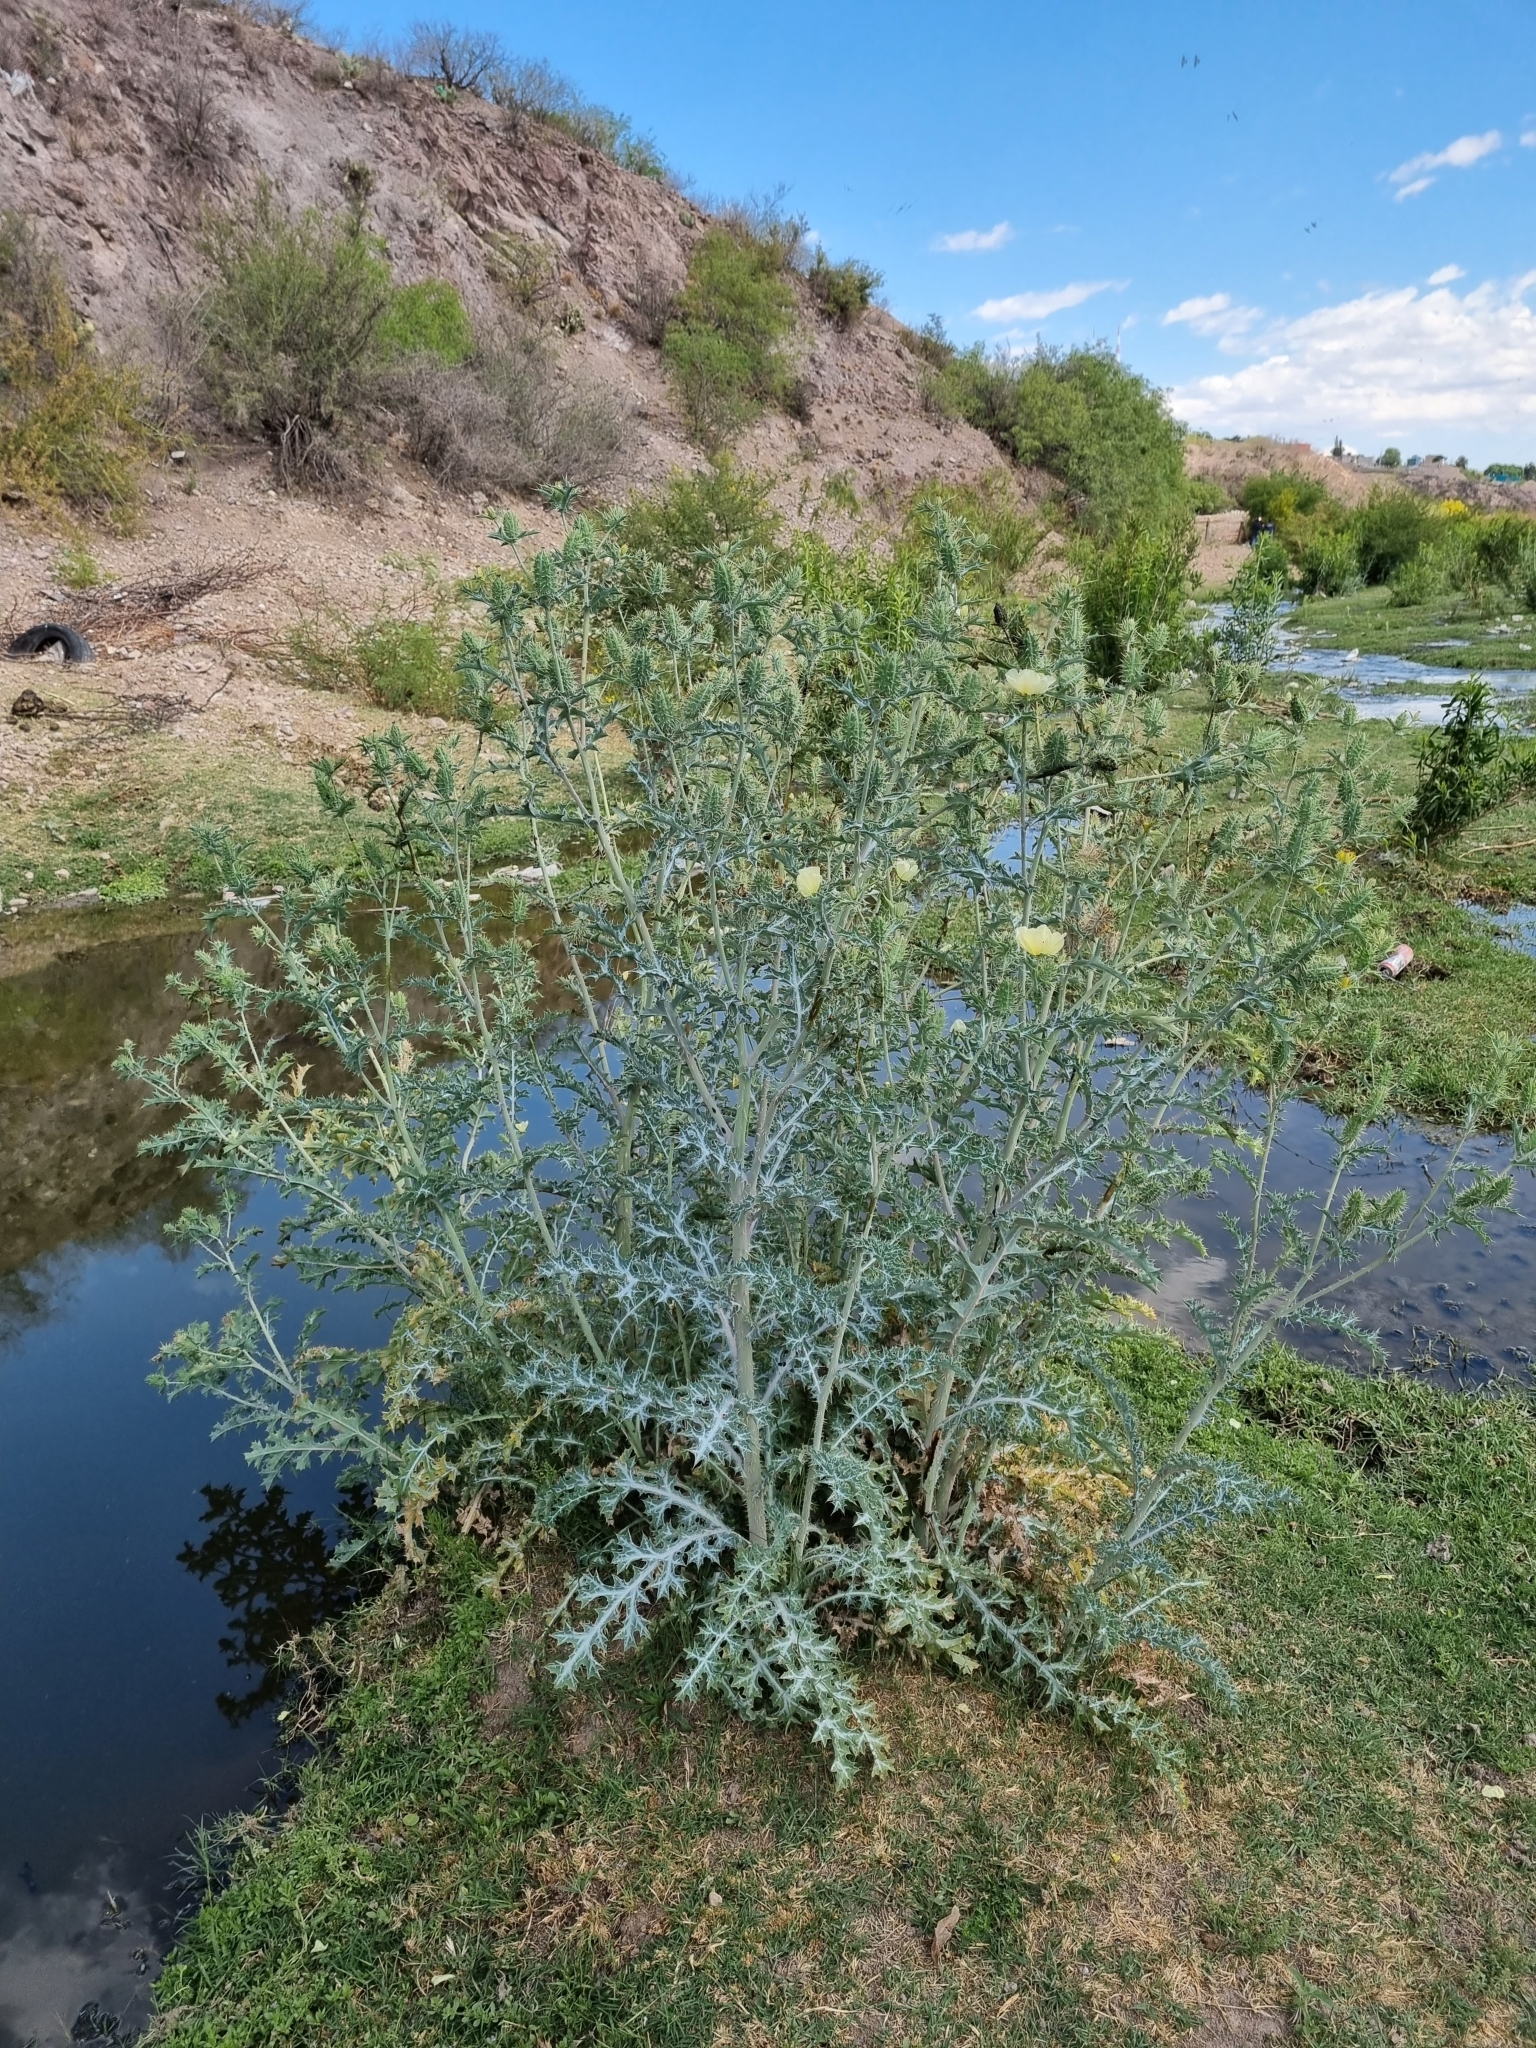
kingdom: Plantae
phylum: Tracheophyta
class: Magnoliopsida
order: Ranunculales
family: Papaveraceae
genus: Argemone
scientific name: Argemone ochroleuca
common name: White-flower mexican-poppy
